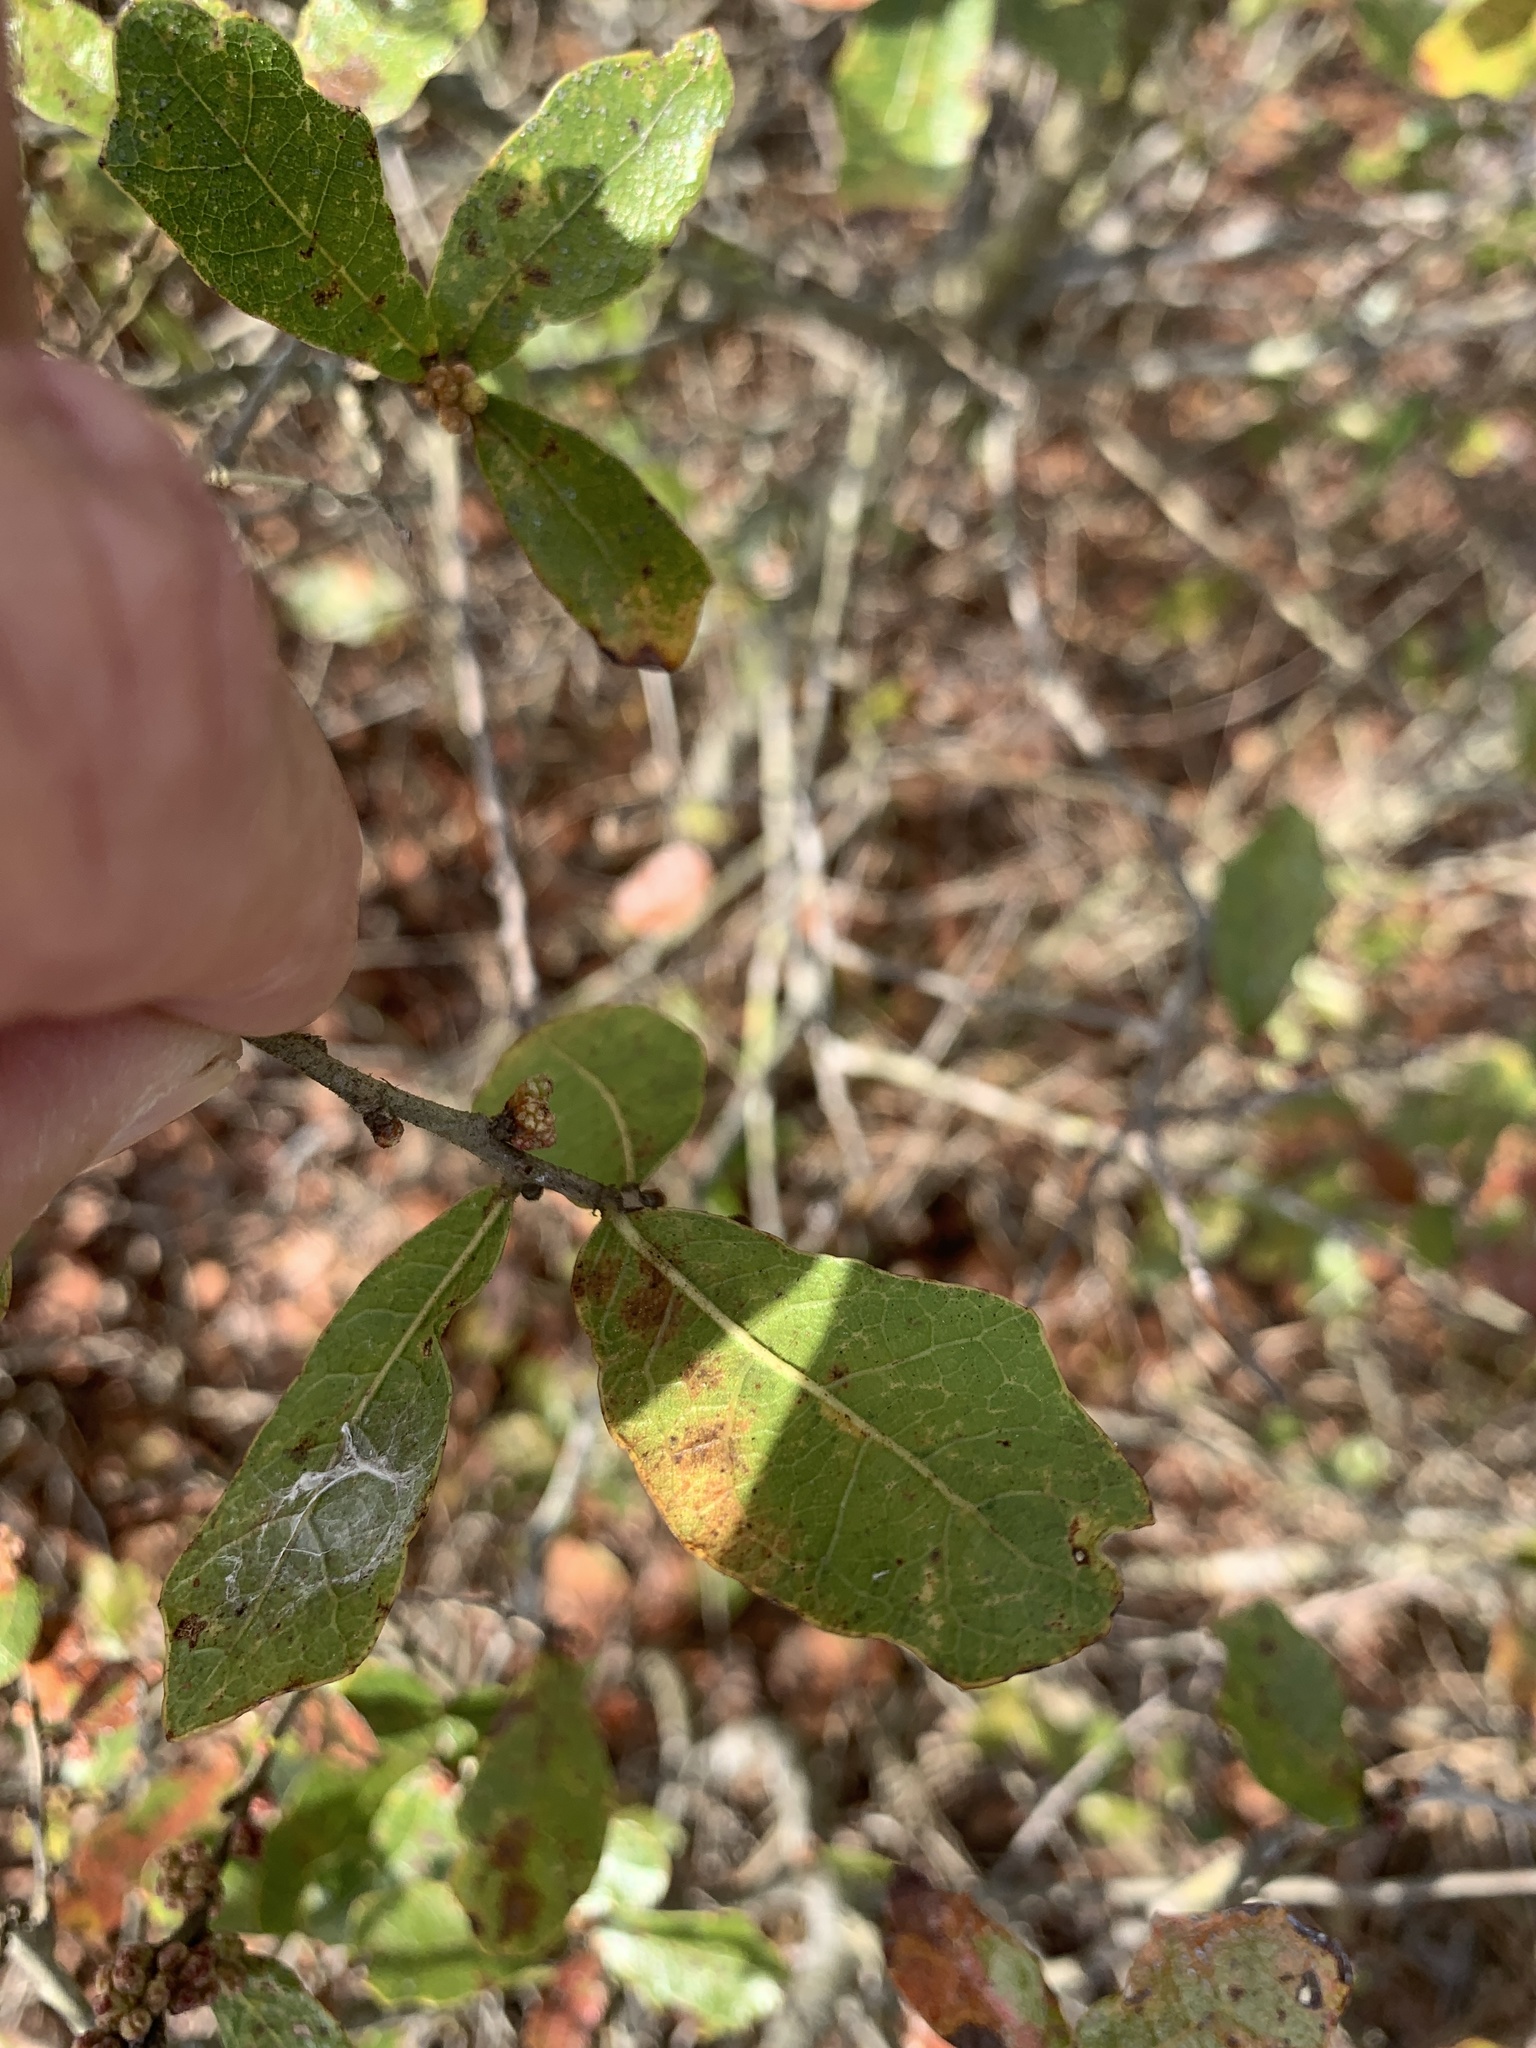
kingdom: Plantae
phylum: Tracheophyta
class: Magnoliopsida
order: Fagales
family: Fagaceae
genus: Quercus
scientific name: Quercus chapmanii
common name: Chapman oak
